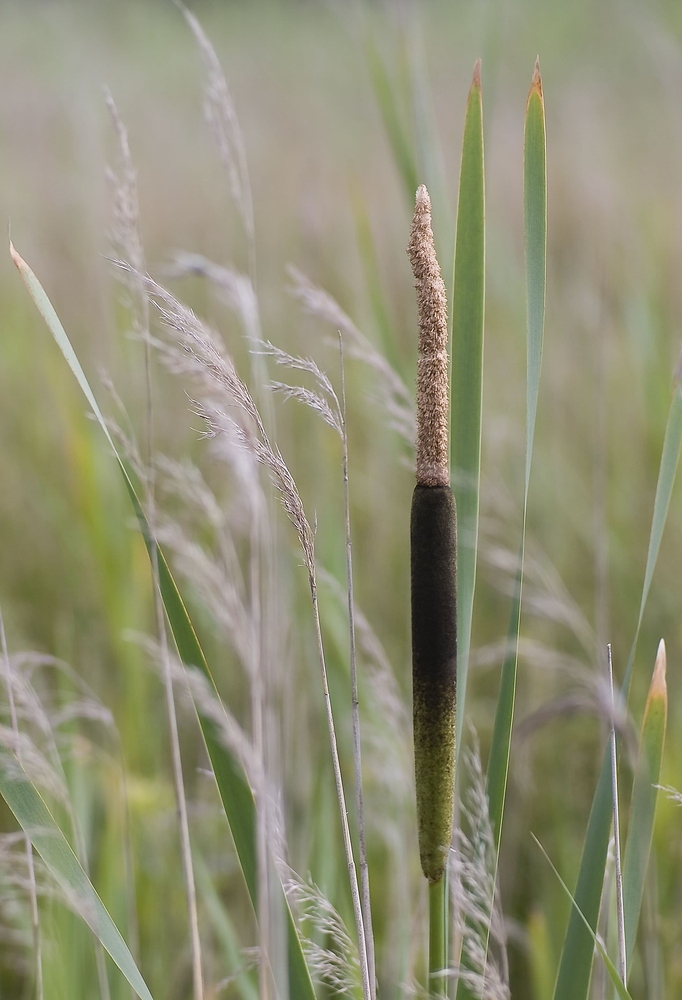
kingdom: Plantae
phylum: Tracheophyta
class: Liliopsida
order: Poales
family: Typhaceae
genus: Typha
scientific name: Typha latifolia
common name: Broadleaf cattail
